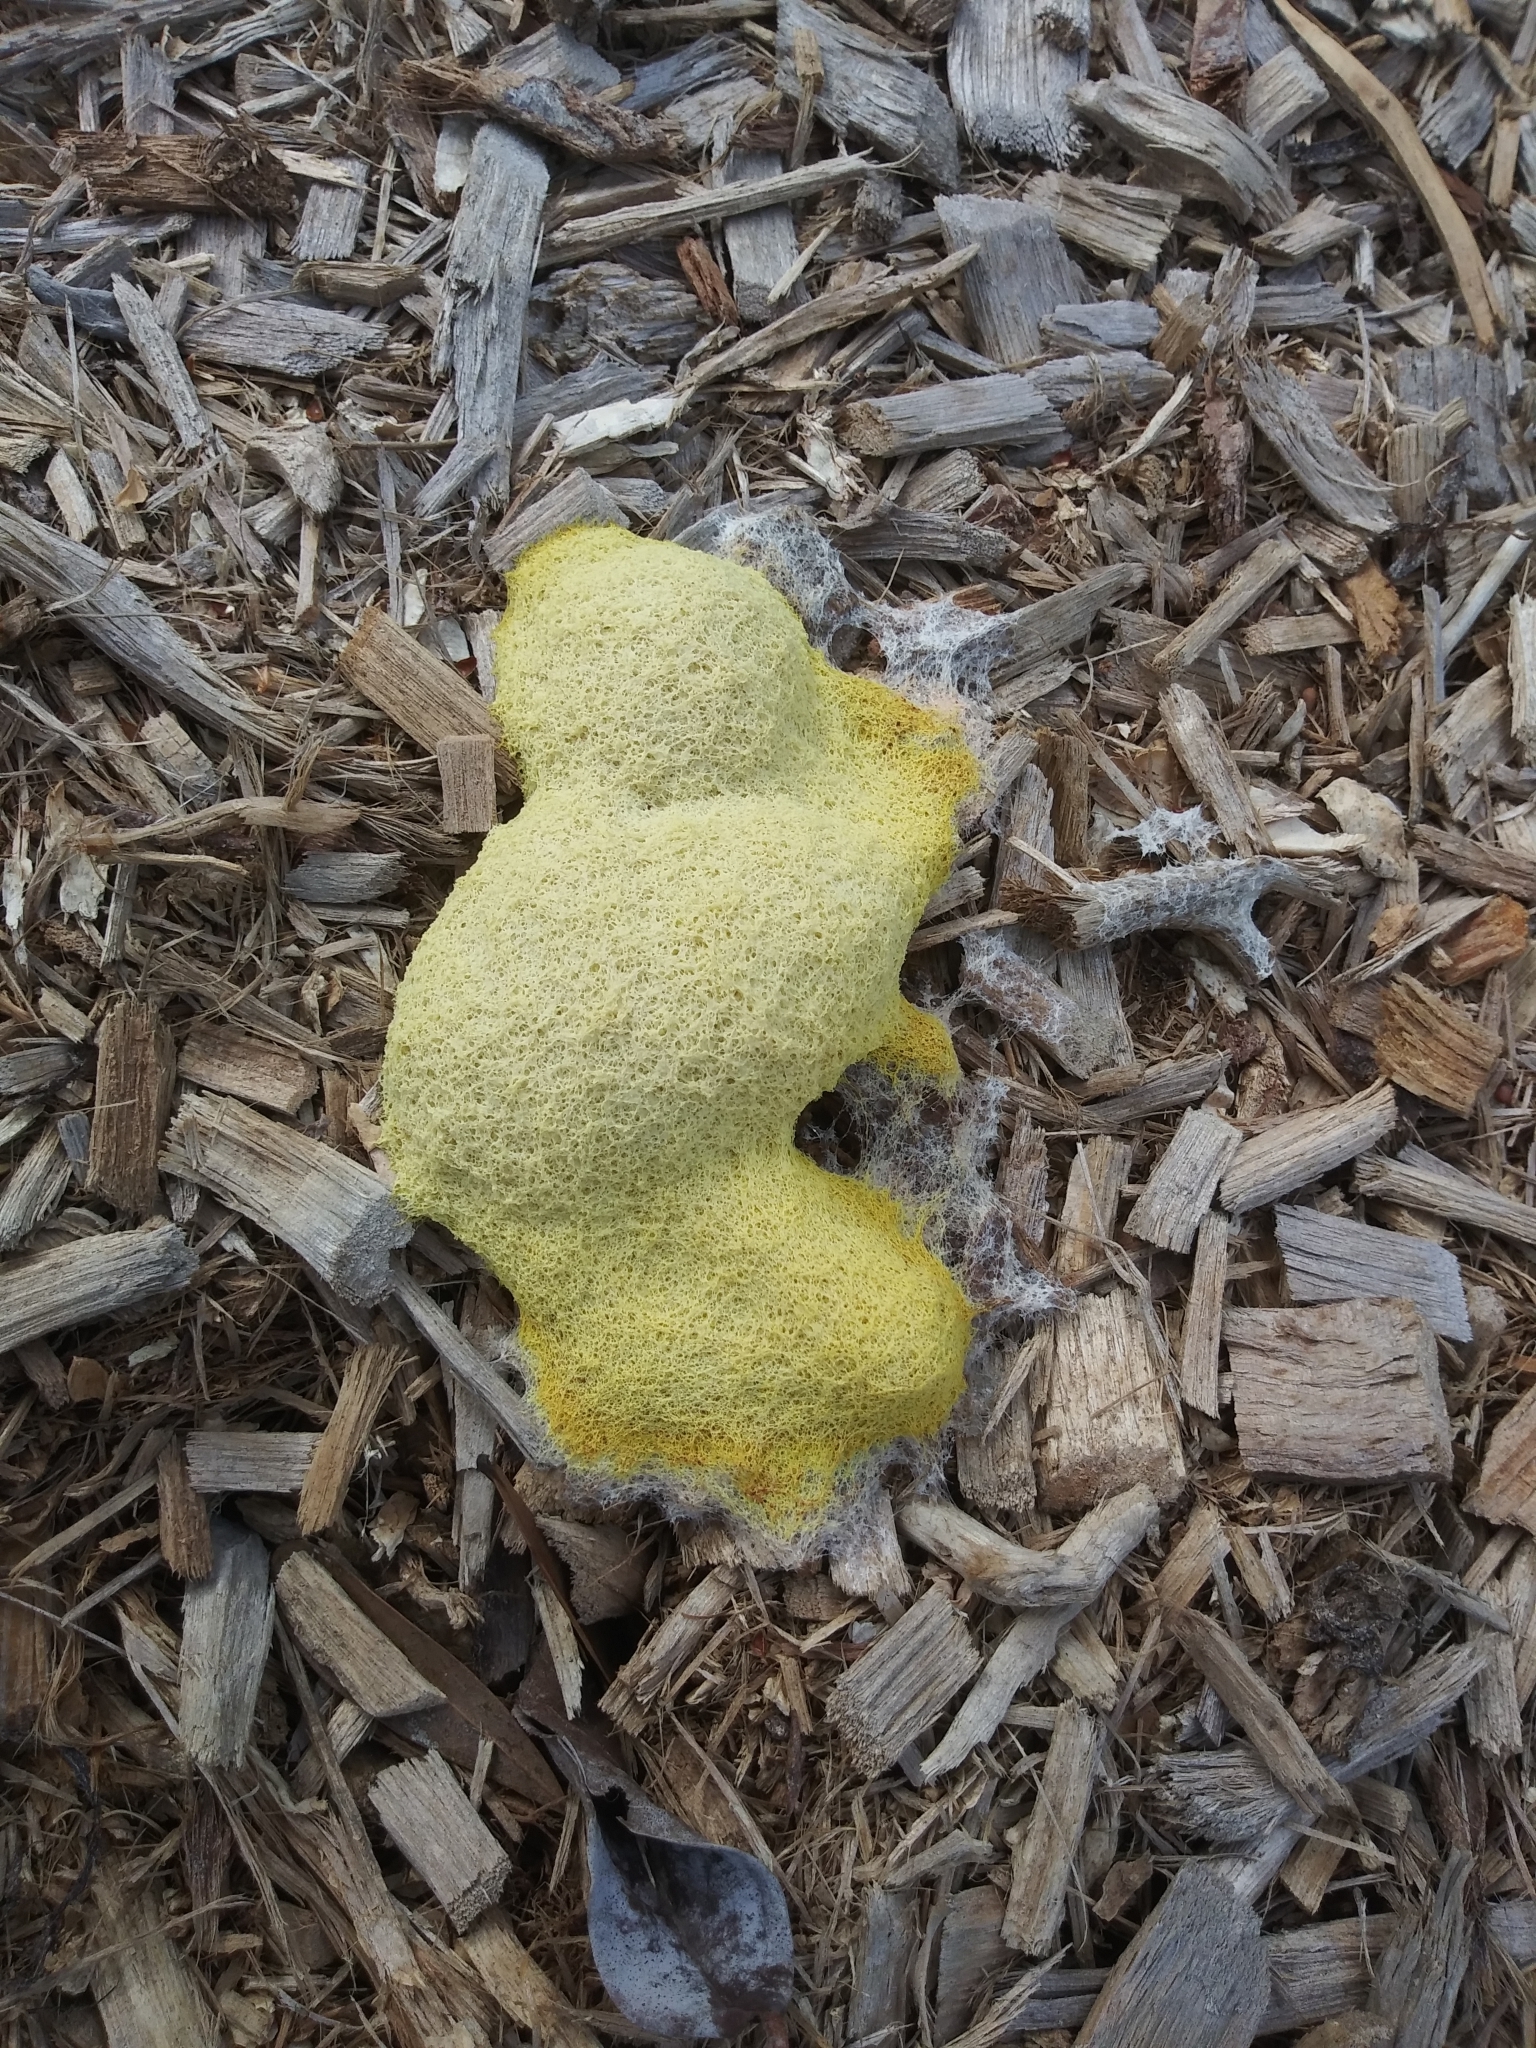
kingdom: Protozoa
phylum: Mycetozoa
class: Myxomycetes
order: Physarales
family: Physaraceae
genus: Fuligo
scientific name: Fuligo septica
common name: Dog vomit slime mold
